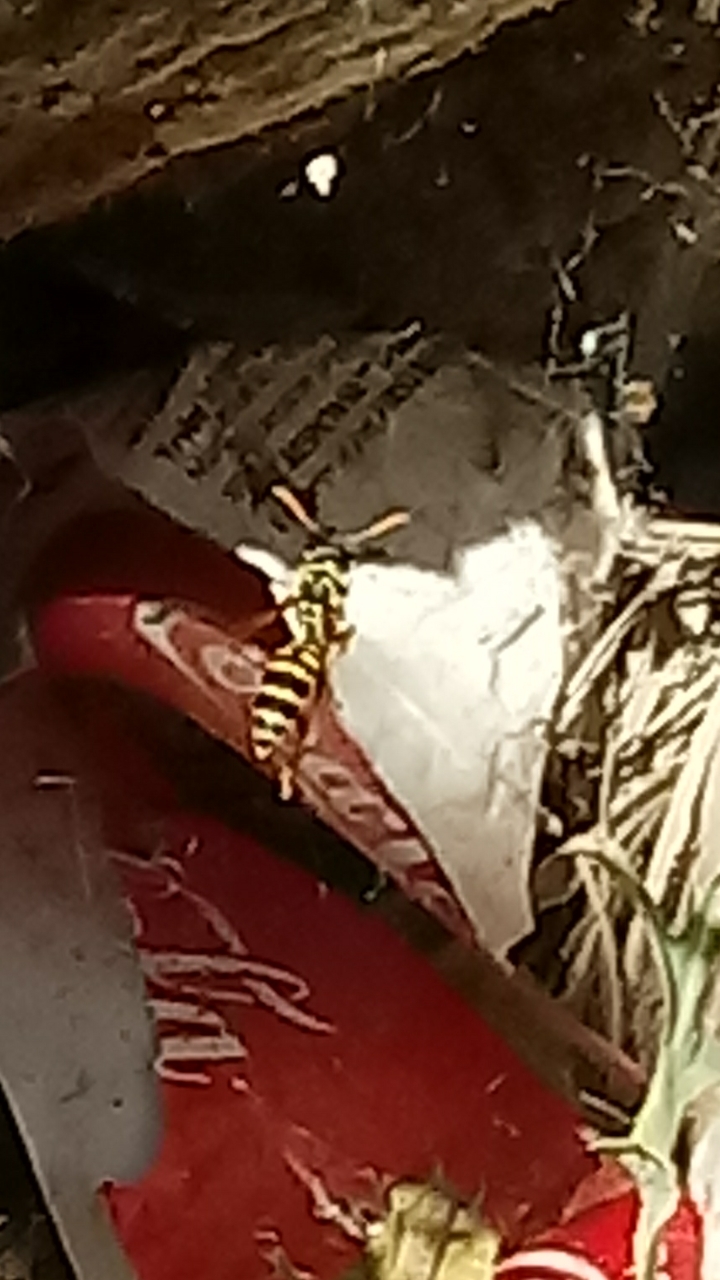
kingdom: Animalia
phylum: Arthropoda
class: Insecta
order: Hymenoptera
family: Eumenidae
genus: Polistes
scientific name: Polistes dominula
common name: Paper wasp
